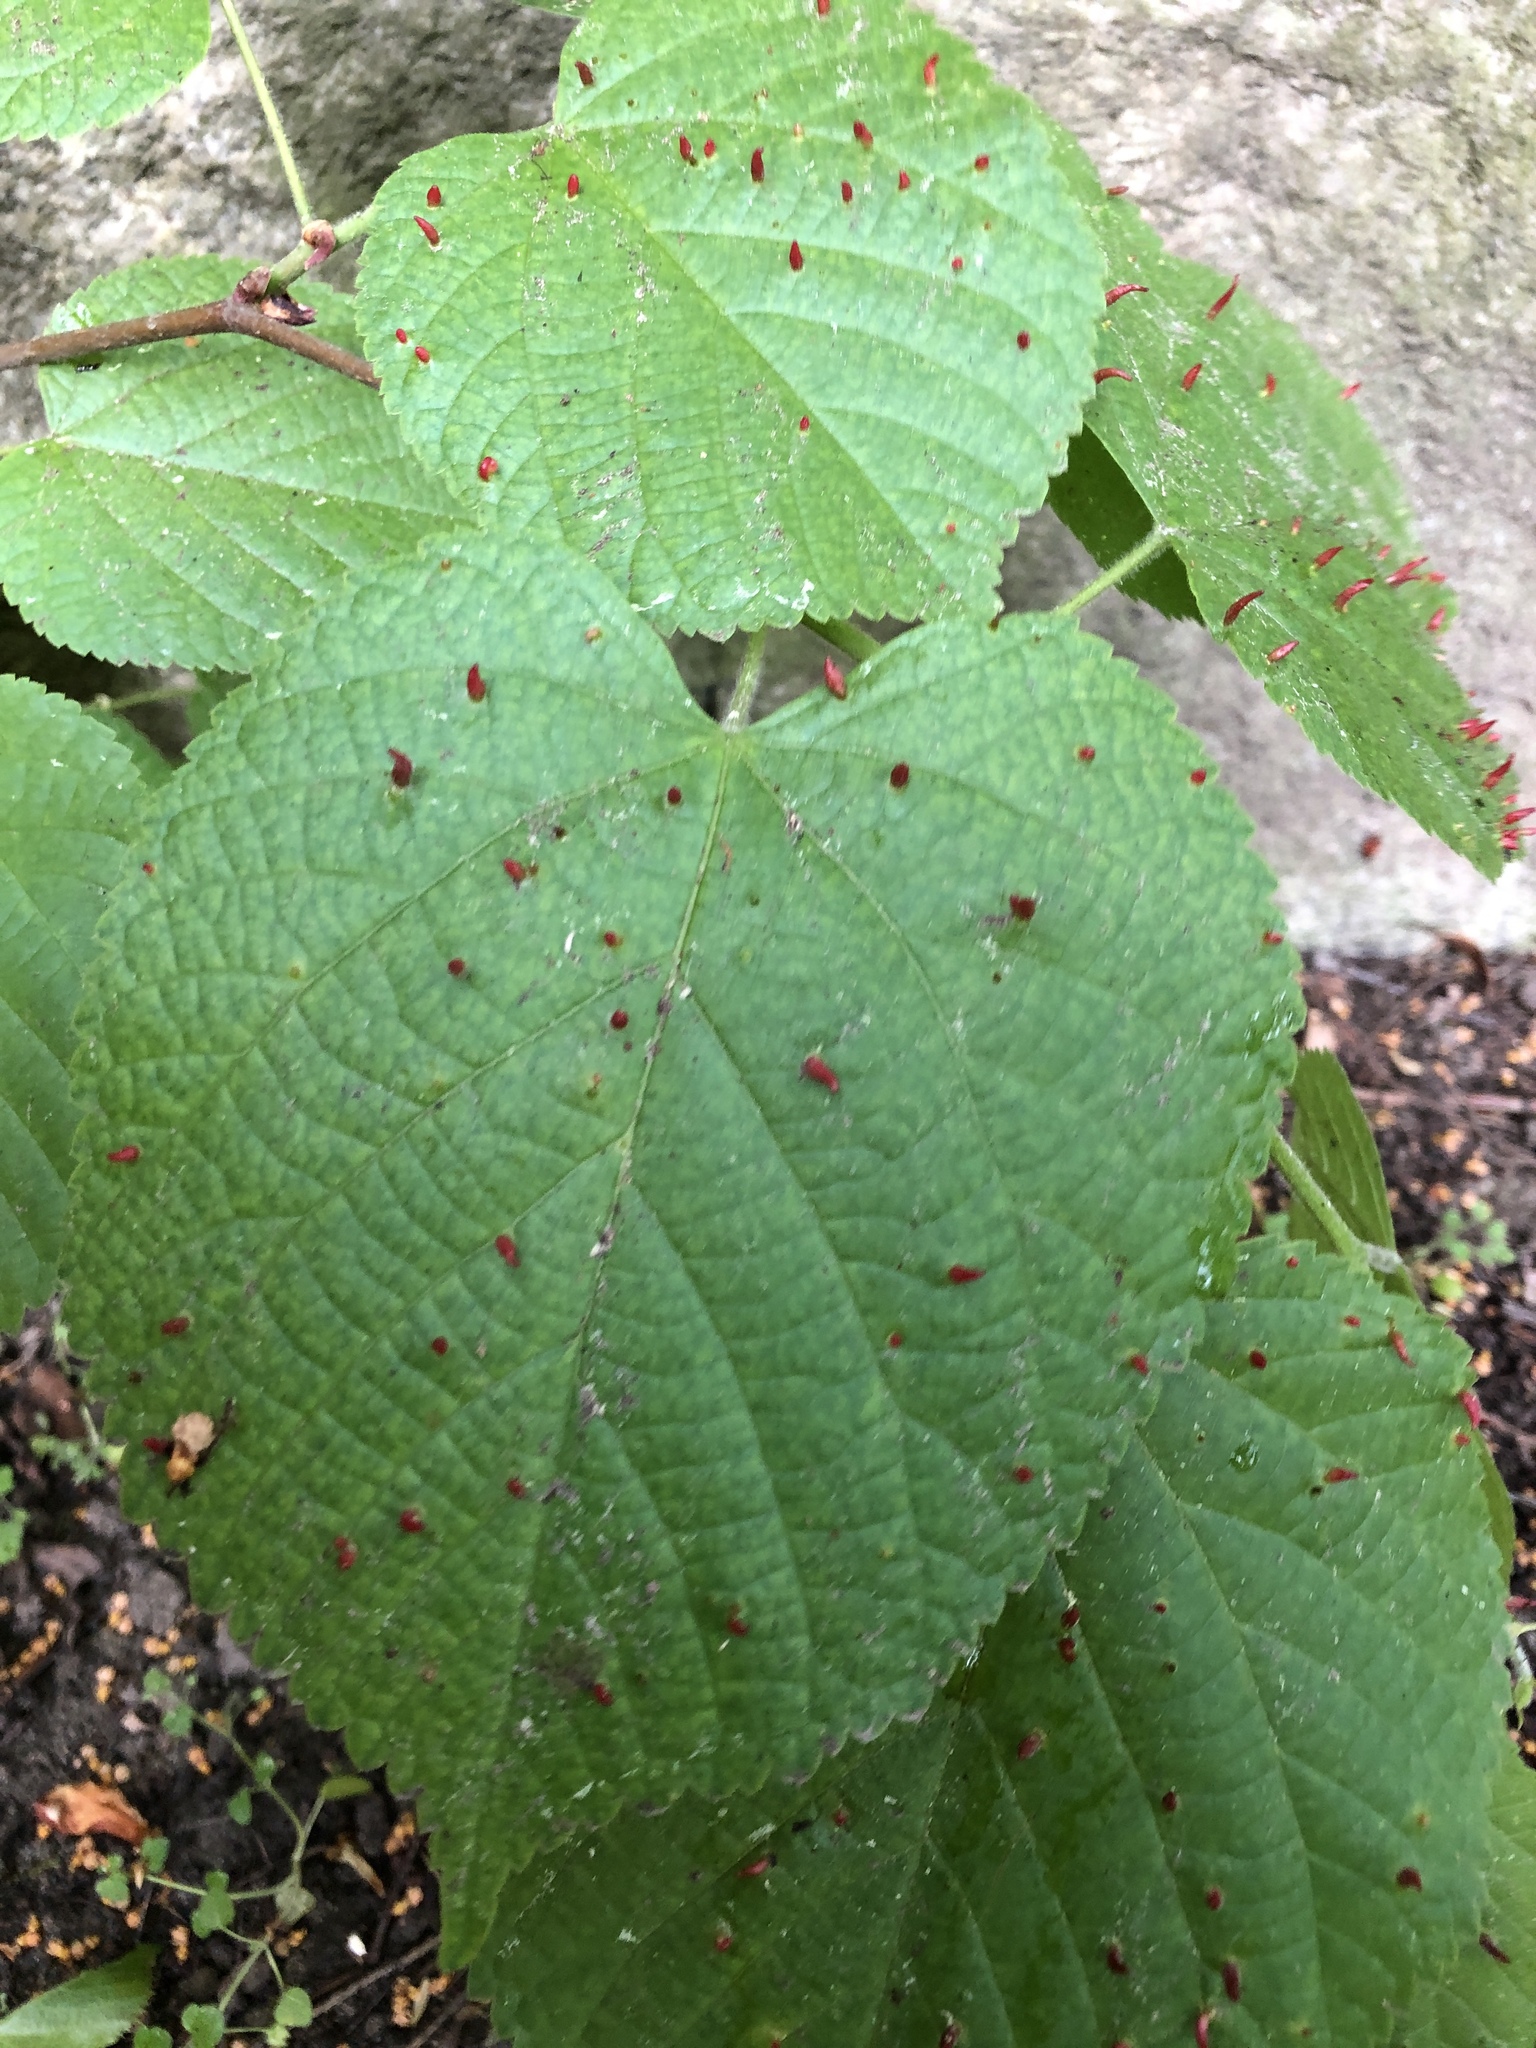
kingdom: Animalia
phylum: Arthropoda
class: Arachnida
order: Trombidiformes
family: Eriophyidae
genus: Eriophyes
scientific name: Eriophyes tiliae
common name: Red nail gall mite
